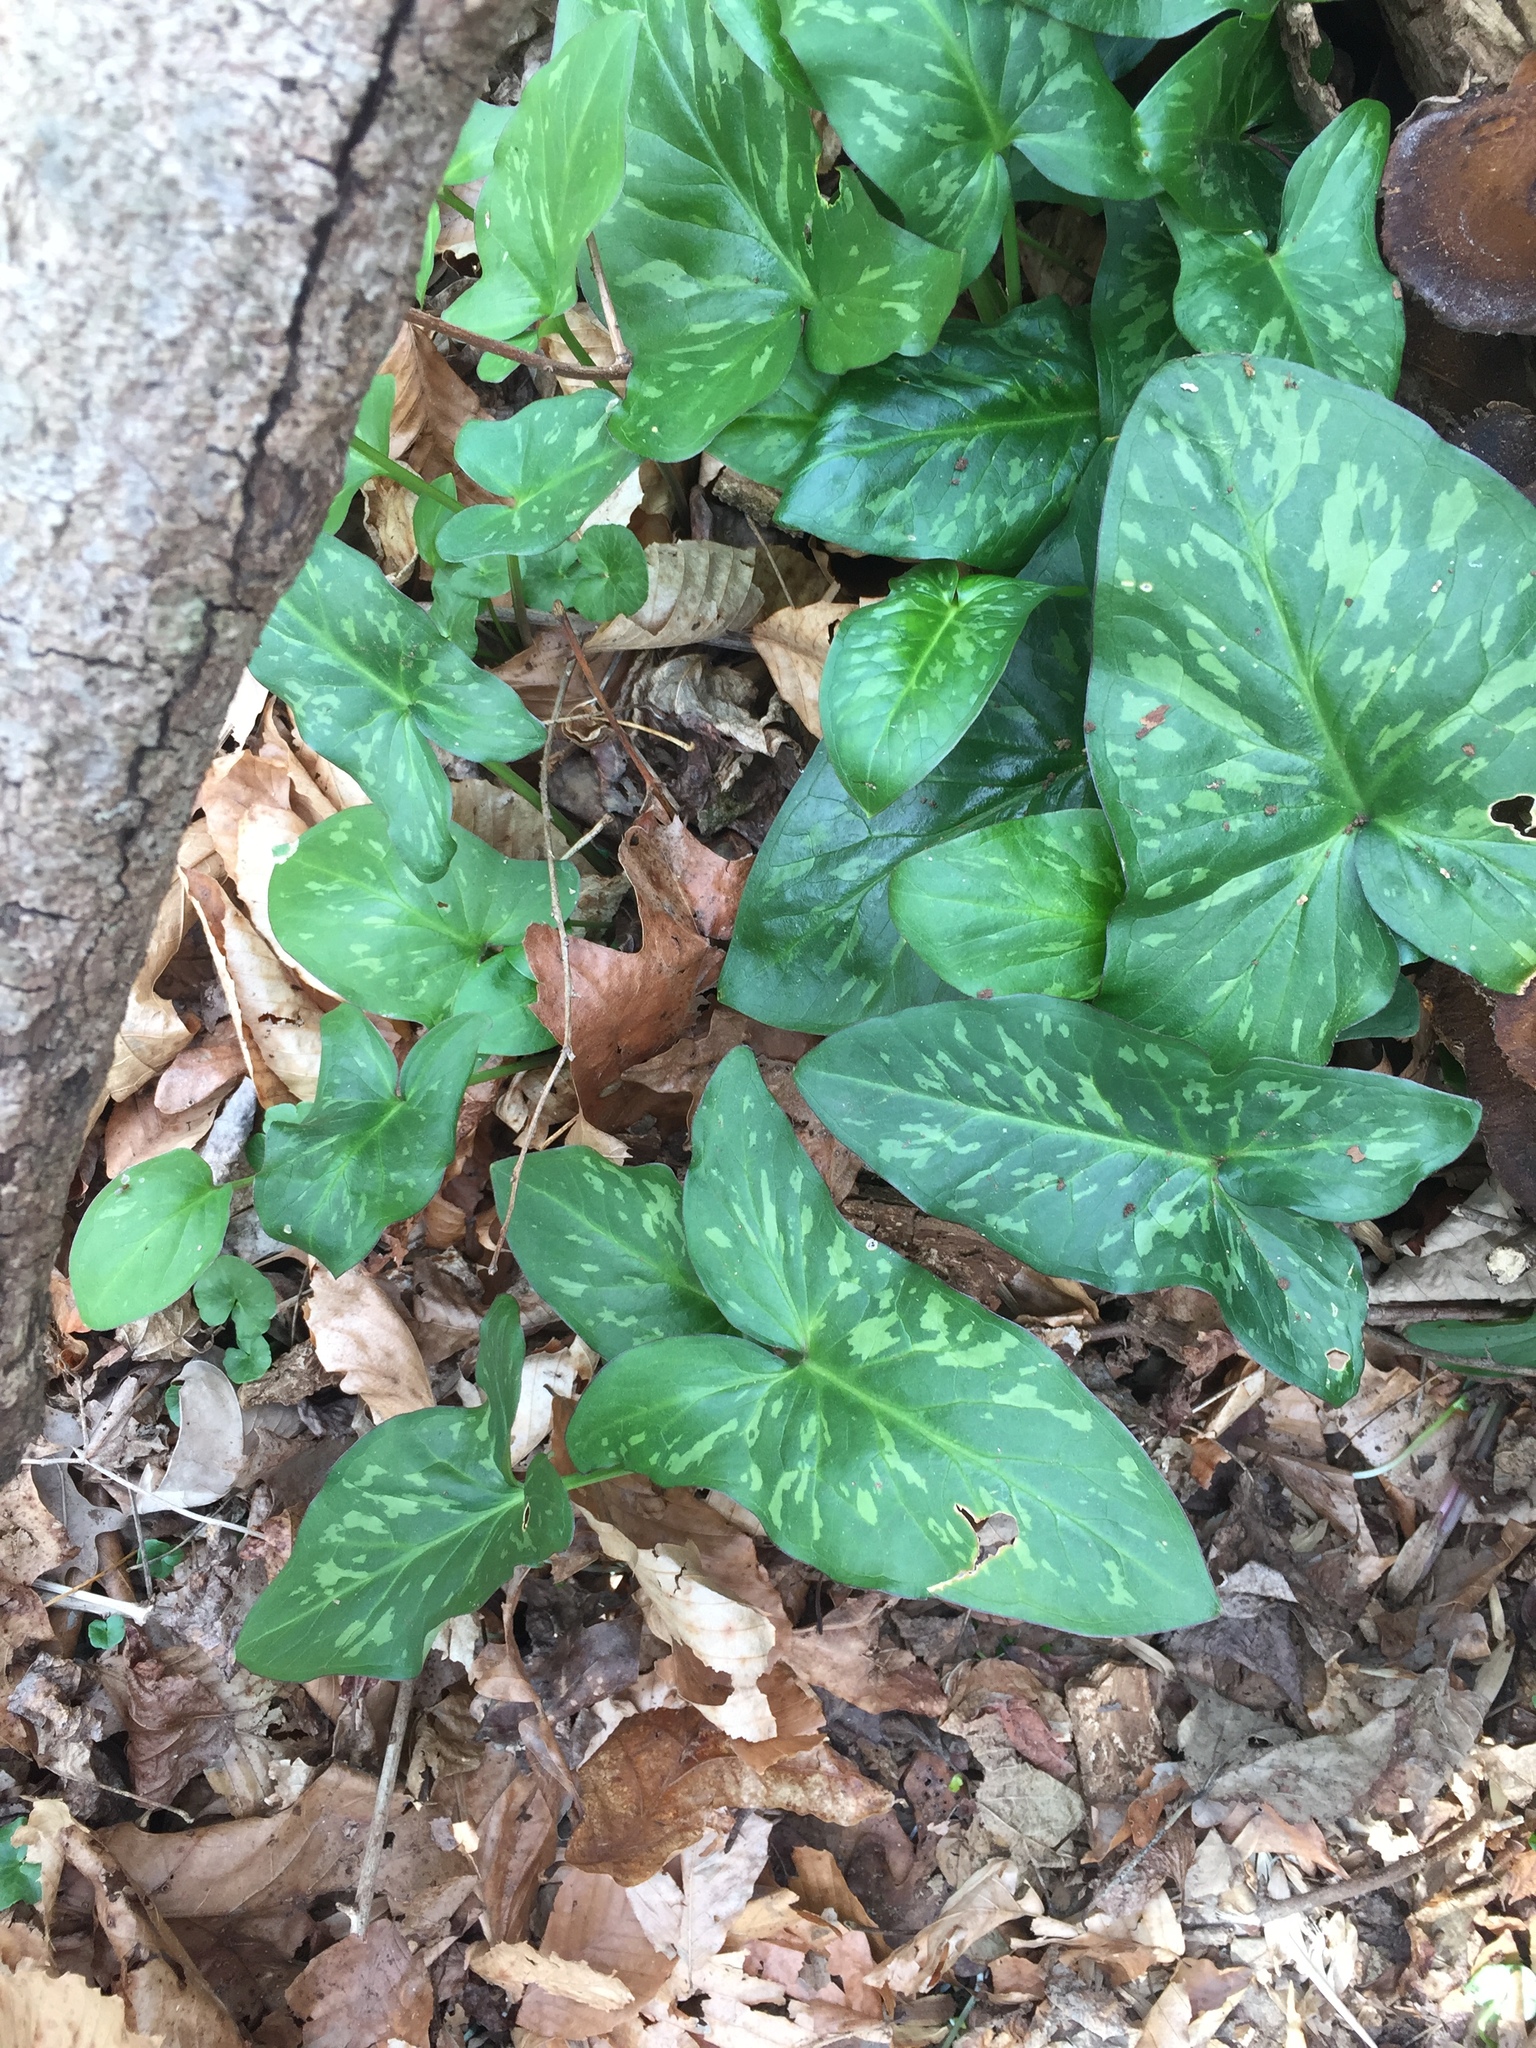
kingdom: Plantae
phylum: Tracheophyta
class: Liliopsida
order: Alismatales
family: Araceae
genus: Arum
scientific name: Arum italicum
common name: Italian lords-and-ladies
